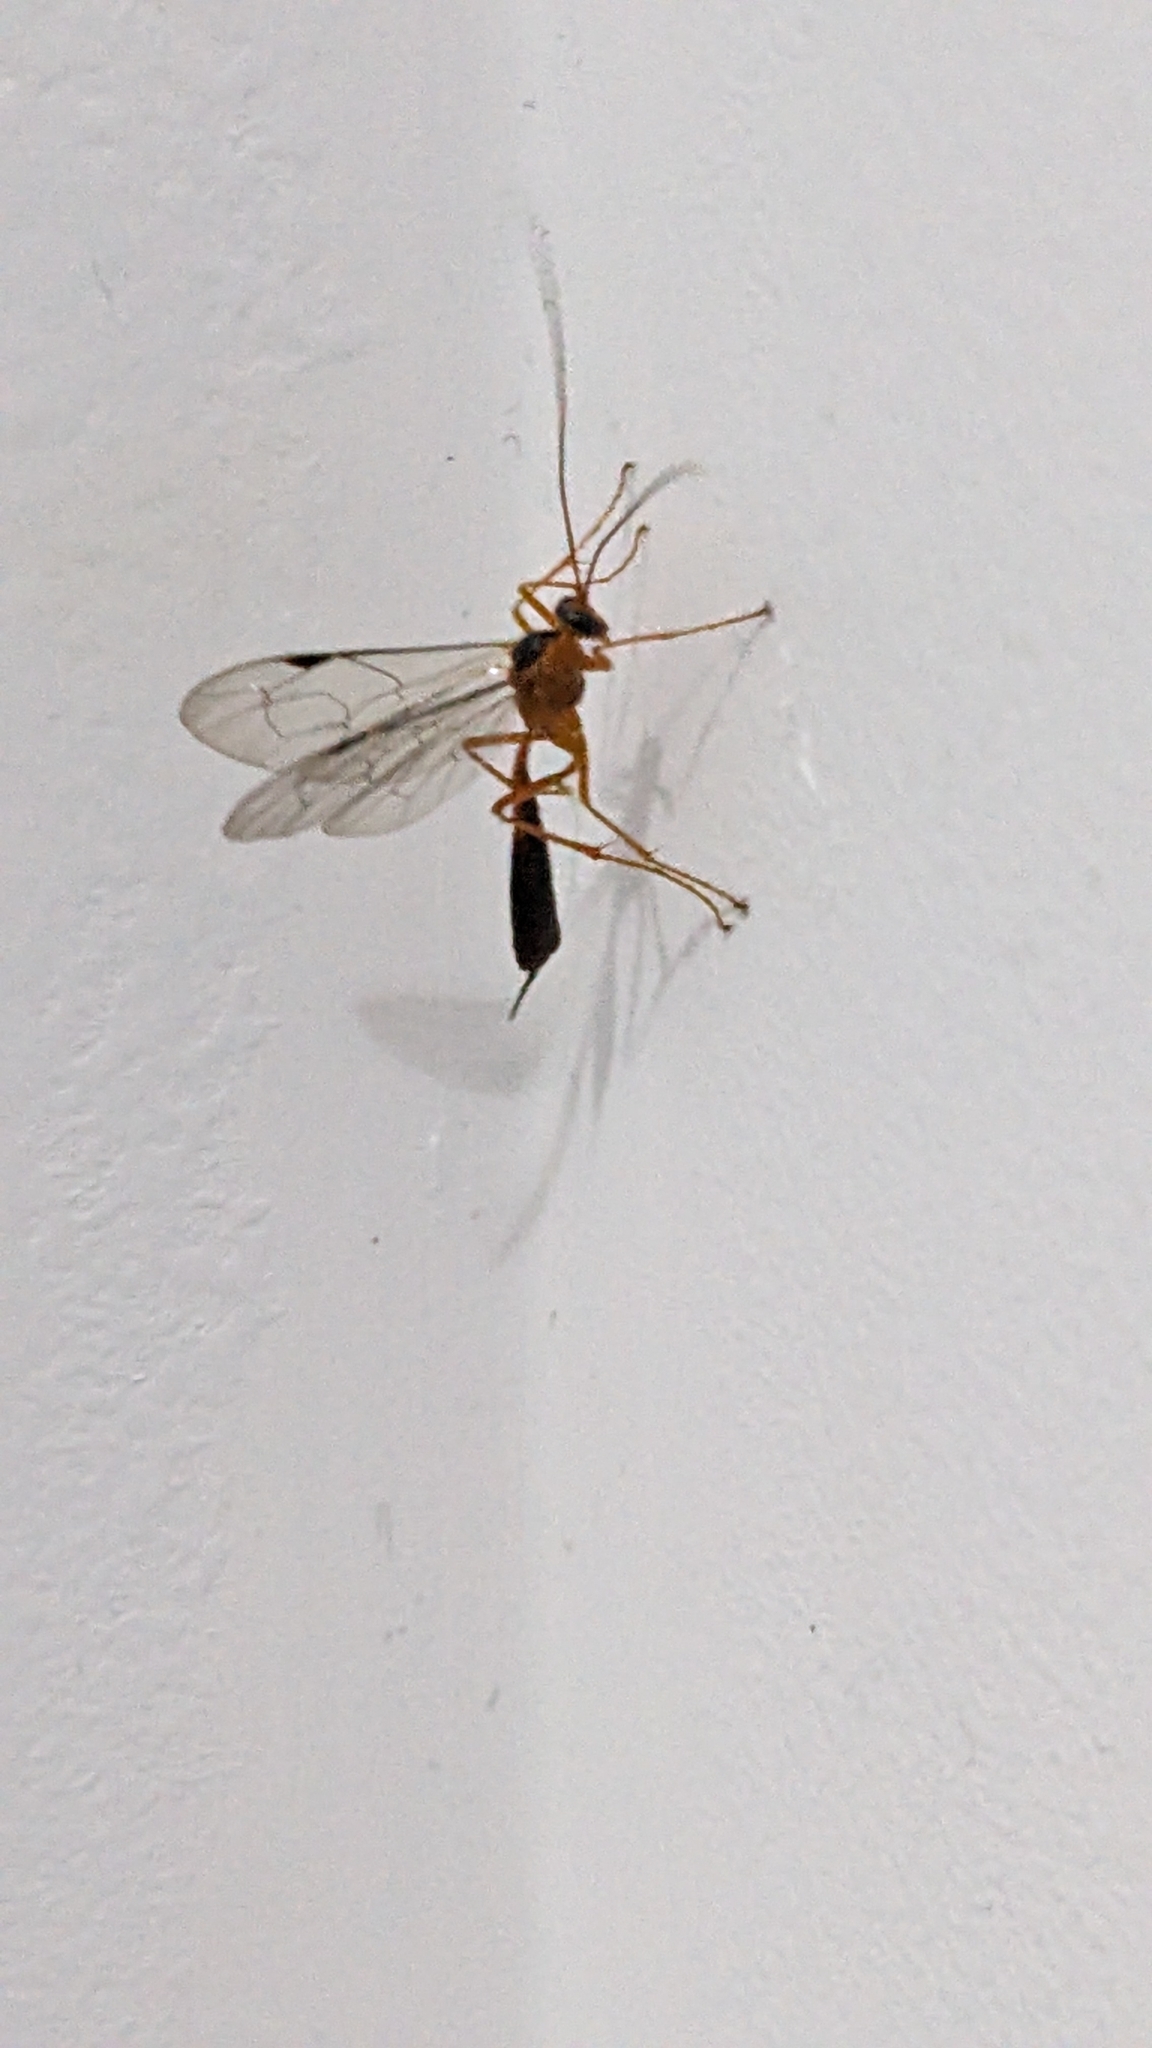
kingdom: Animalia
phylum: Arthropoda
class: Insecta
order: Hymenoptera
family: Ichneumonidae
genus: Netelia
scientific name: Netelia ephippiata
